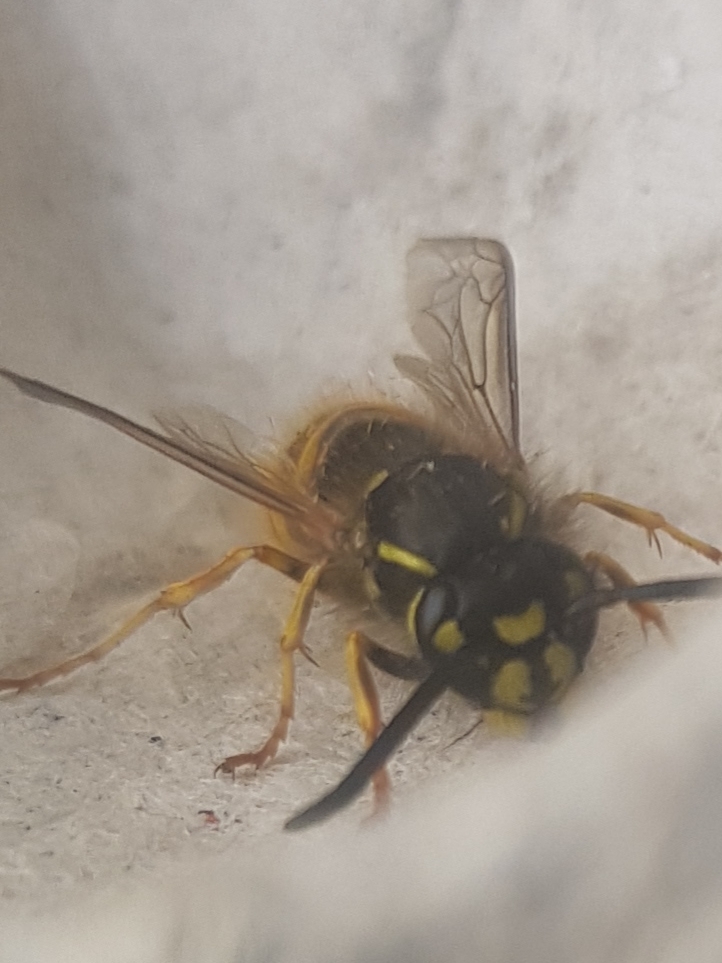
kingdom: Animalia
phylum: Arthropoda
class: Insecta
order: Hymenoptera
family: Vespidae
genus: Vespula
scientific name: Vespula vulgaris
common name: Common wasp
